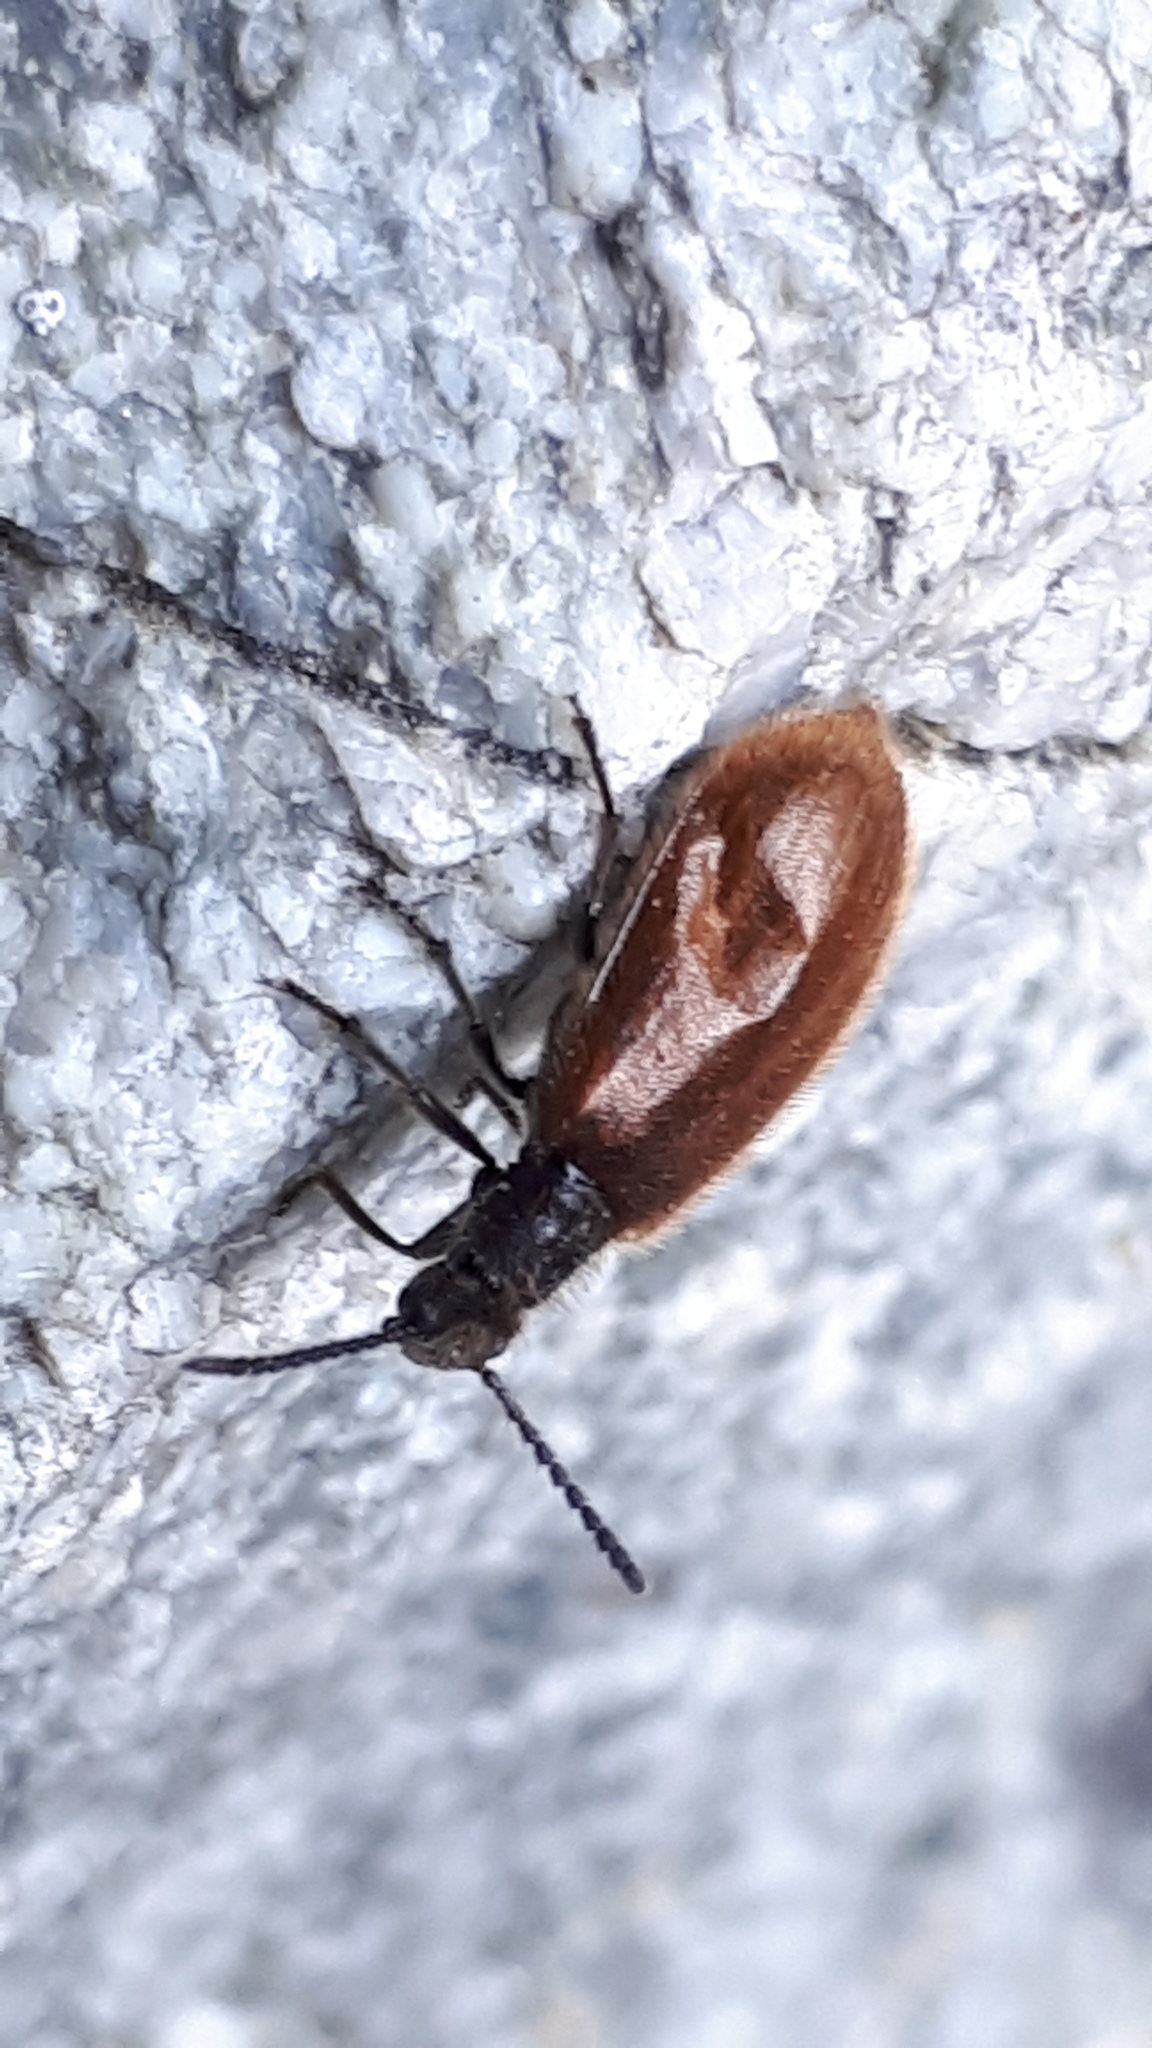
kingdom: Animalia
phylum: Arthropoda
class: Insecta
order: Coleoptera
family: Tenebrionidae
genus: Lagria
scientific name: Lagria hirta
